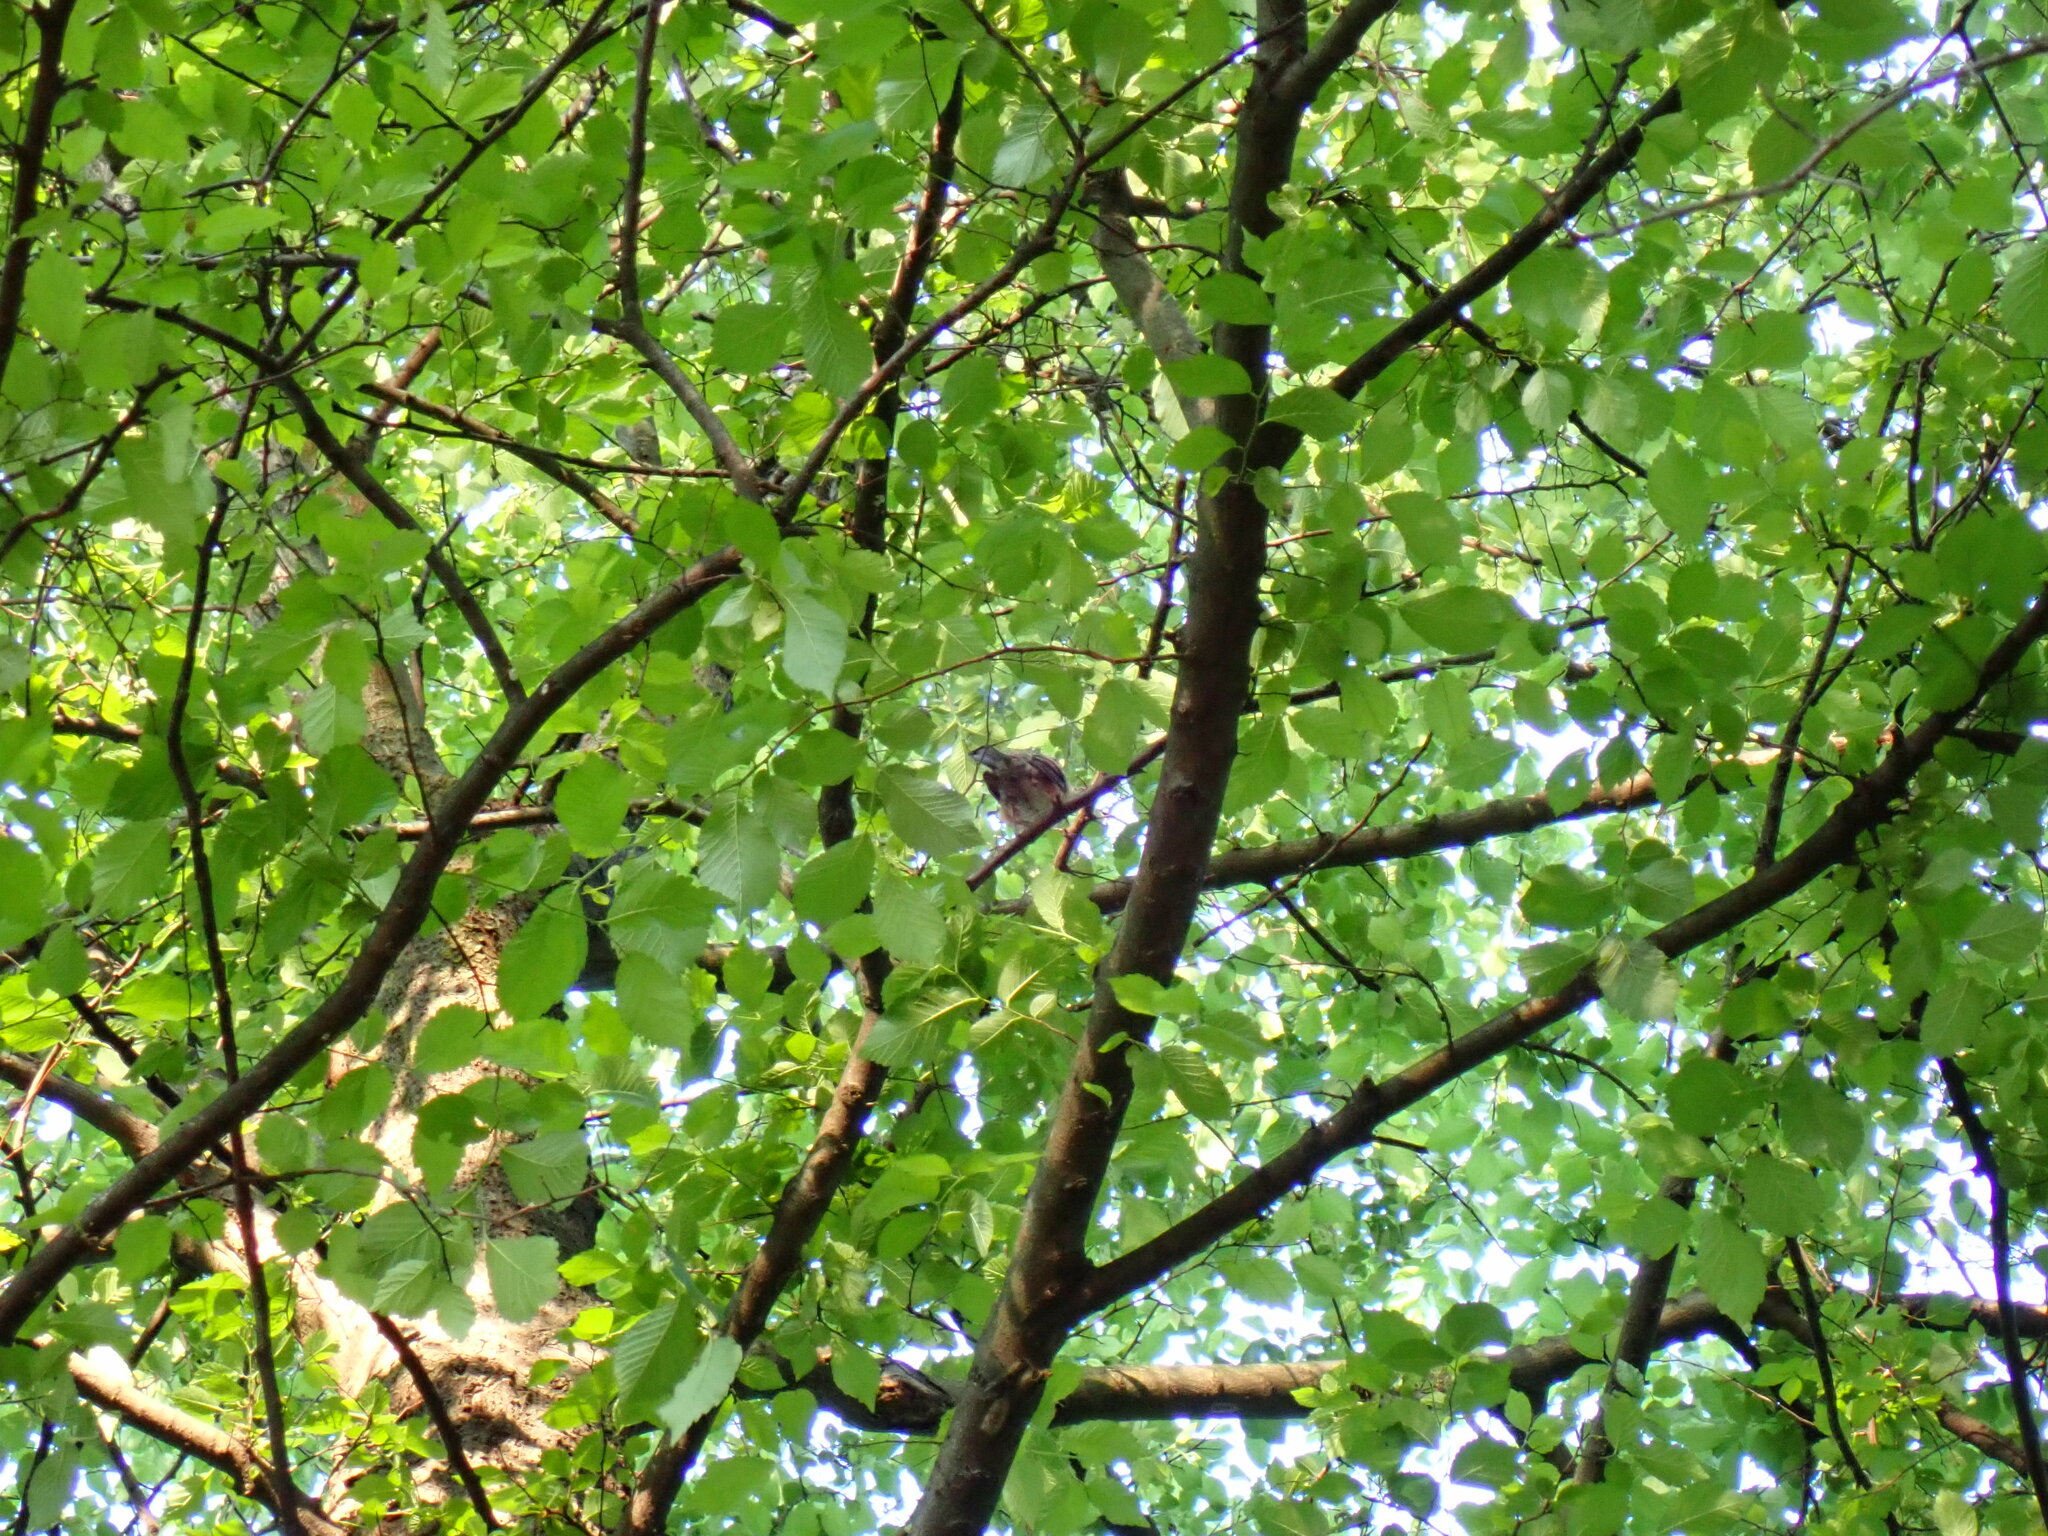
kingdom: Animalia
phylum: Chordata
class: Aves
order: Passeriformes
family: Turdidae
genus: Turdus
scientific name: Turdus migratorius
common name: American robin
